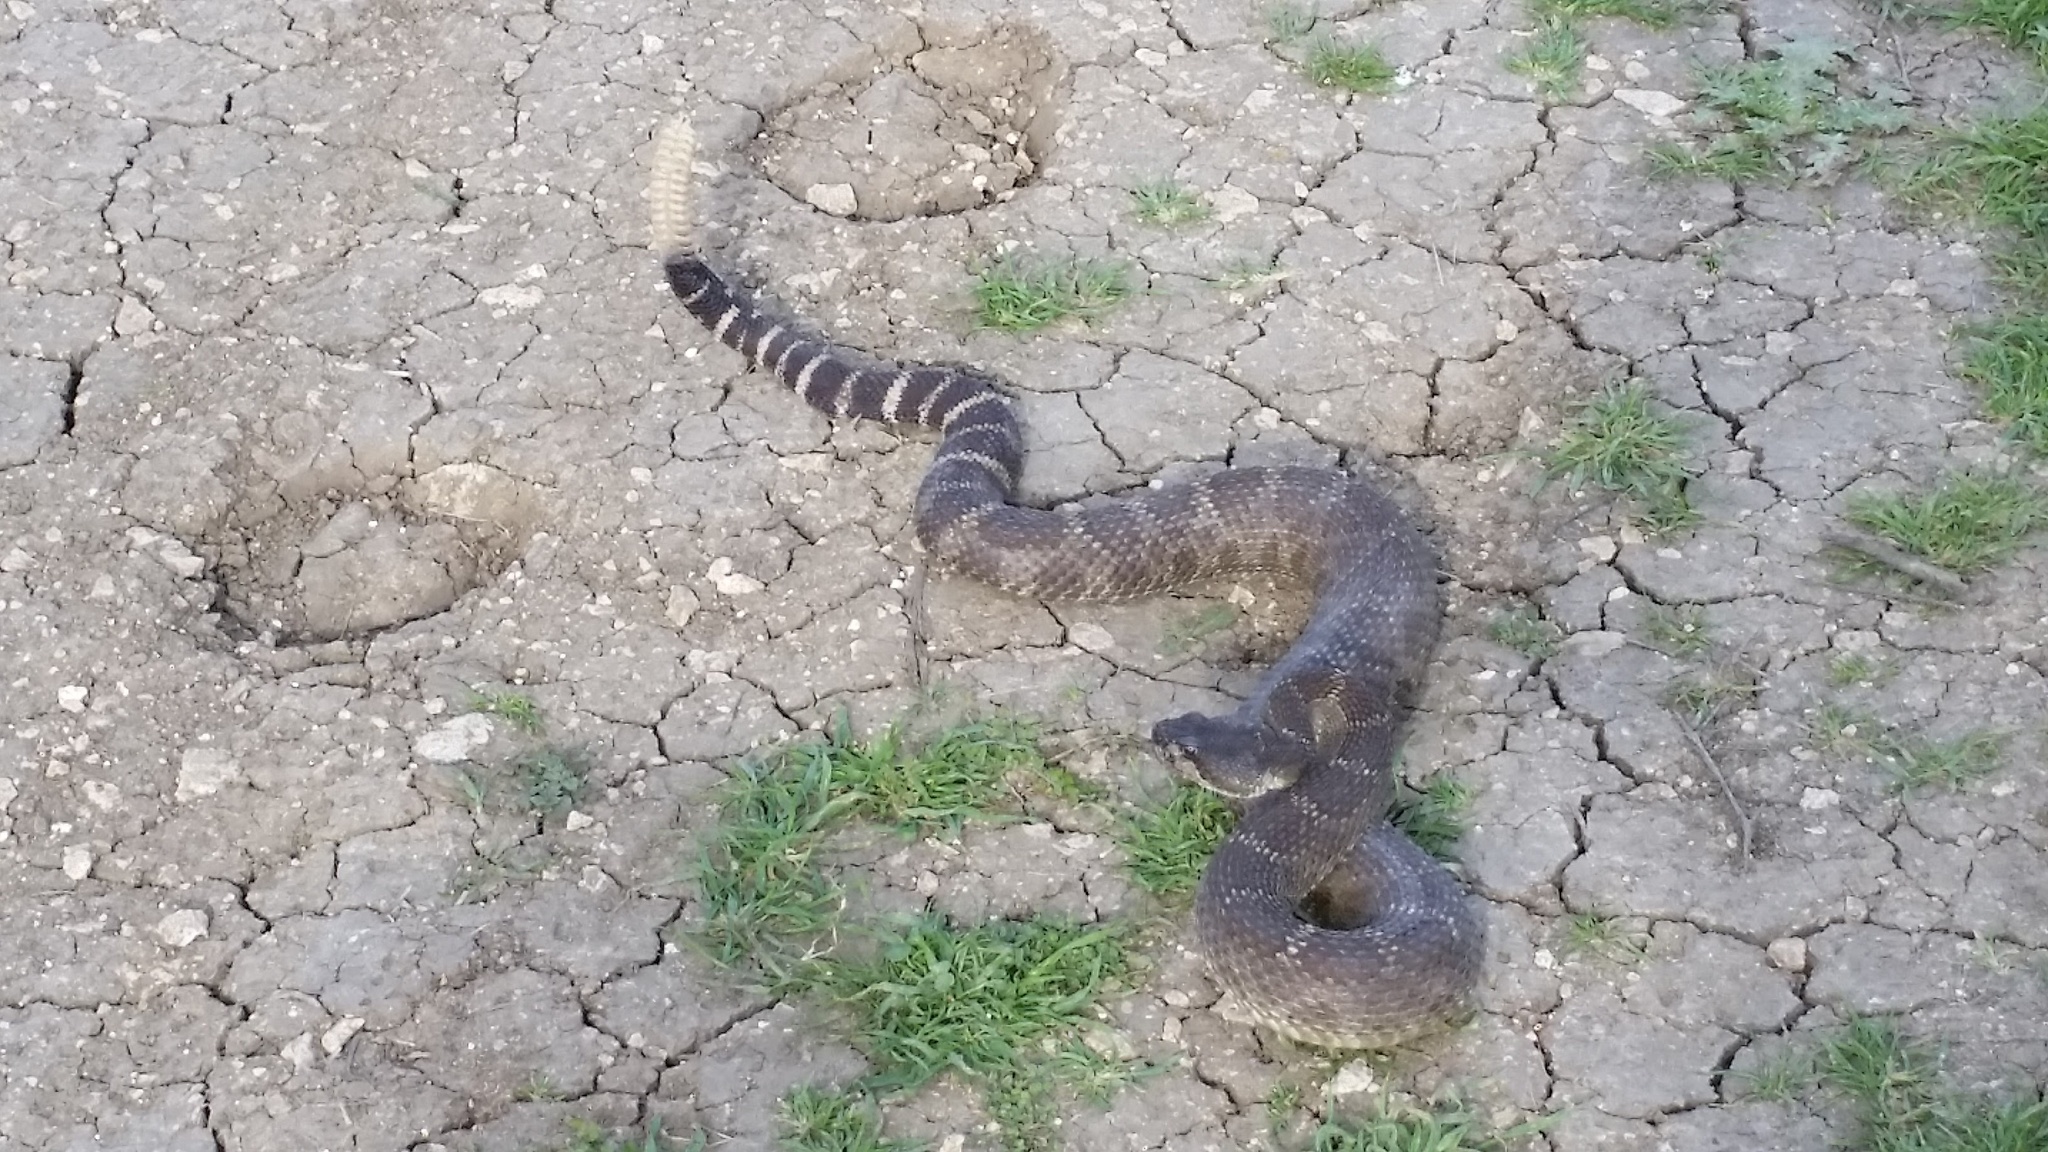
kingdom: Animalia
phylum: Chordata
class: Squamata
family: Viperidae
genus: Crotalus
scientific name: Crotalus oreganus
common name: Abyssus
